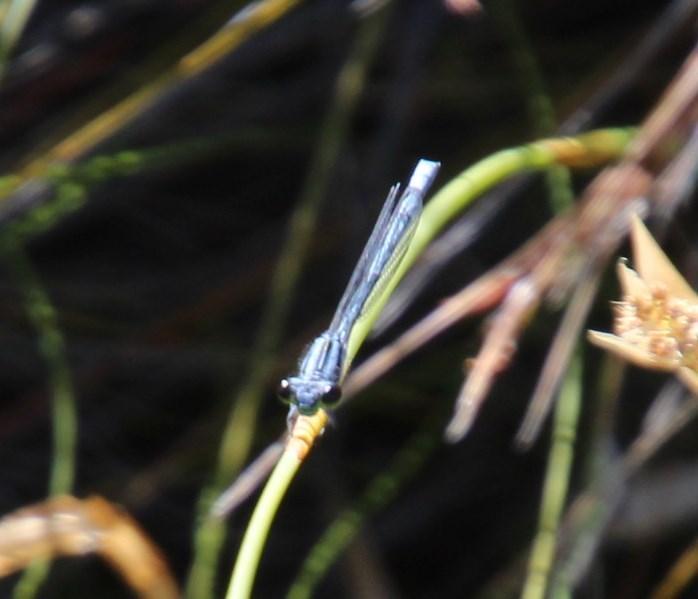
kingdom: Animalia
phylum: Arthropoda
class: Insecta
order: Odonata
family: Coenagrionidae
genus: Pseudagrion
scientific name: Pseudagrion furcigerum
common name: Palmiet sprite
